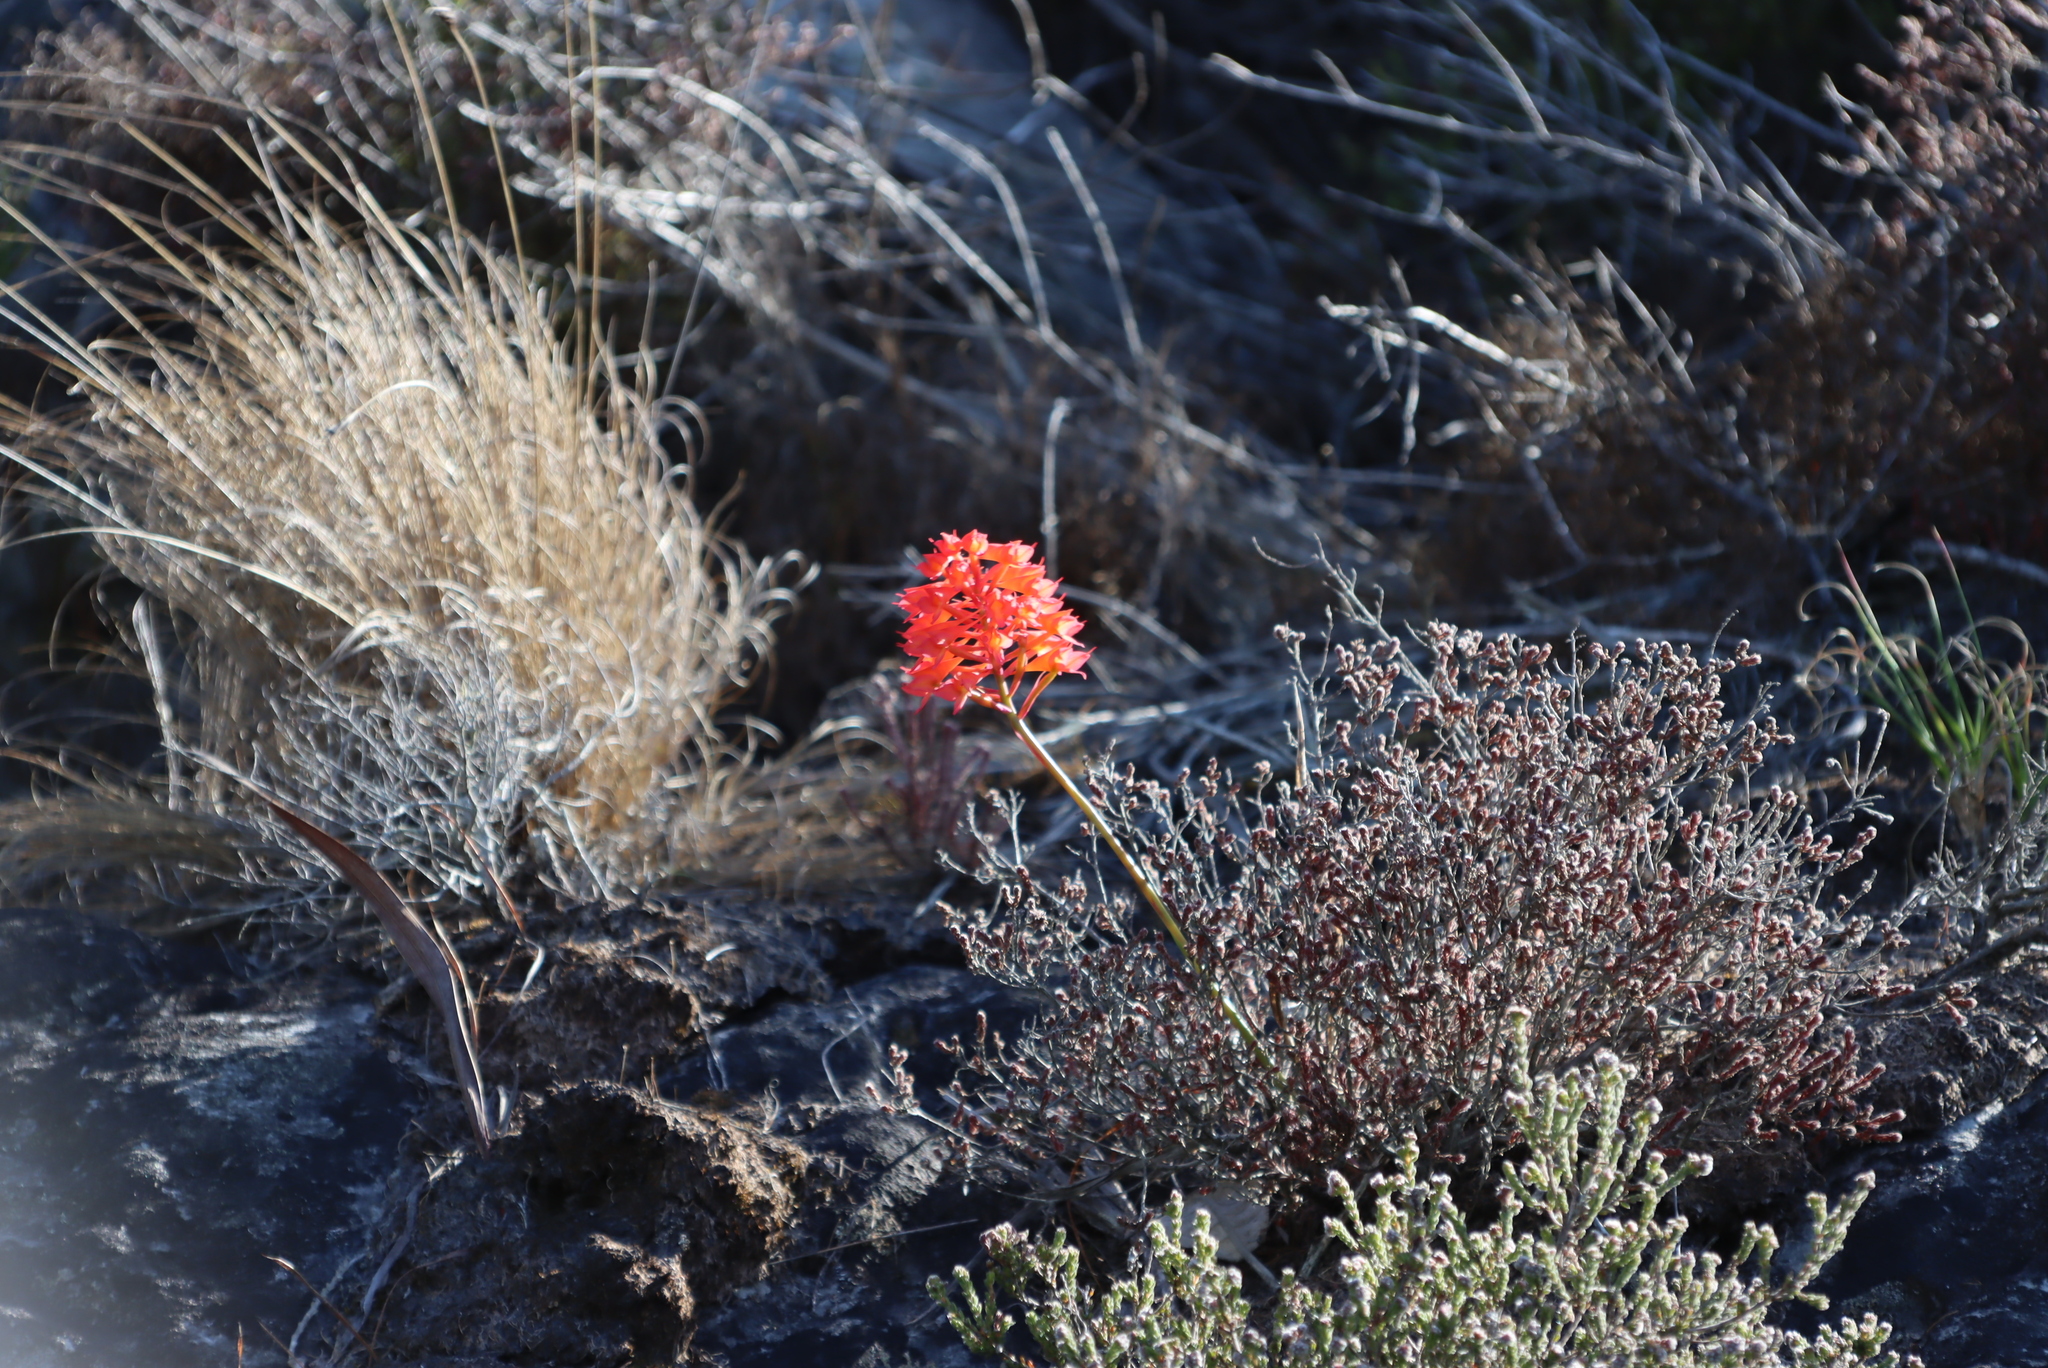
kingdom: Plantae
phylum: Tracheophyta
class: Liliopsida
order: Asparagales
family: Orchidaceae
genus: Disa
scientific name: Disa ferruginea
